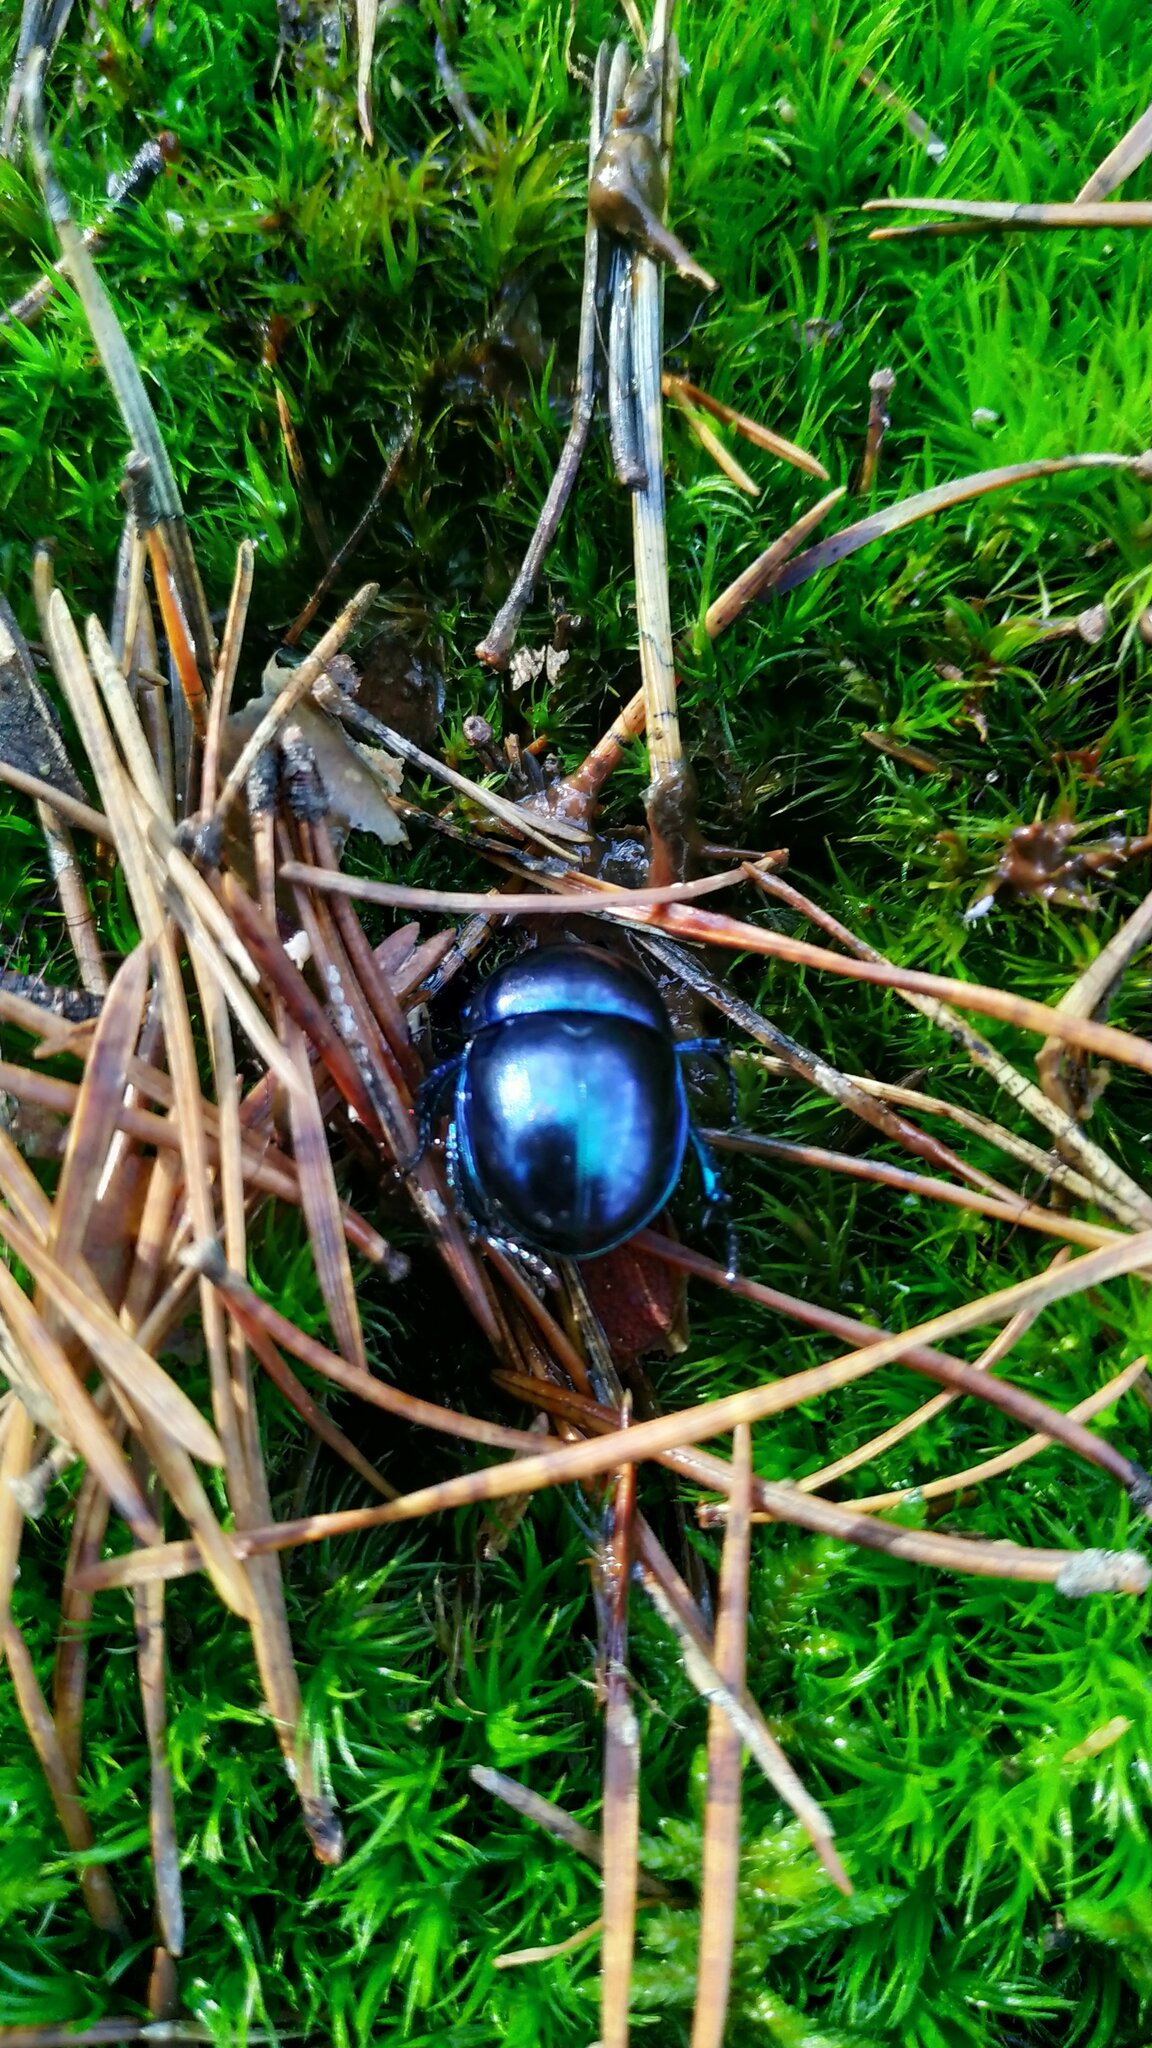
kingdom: Animalia
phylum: Arthropoda
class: Insecta
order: Coleoptera
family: Geotrupidae
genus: Trypocopris
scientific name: Trypocopris vernalis
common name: Spring dumbledor
